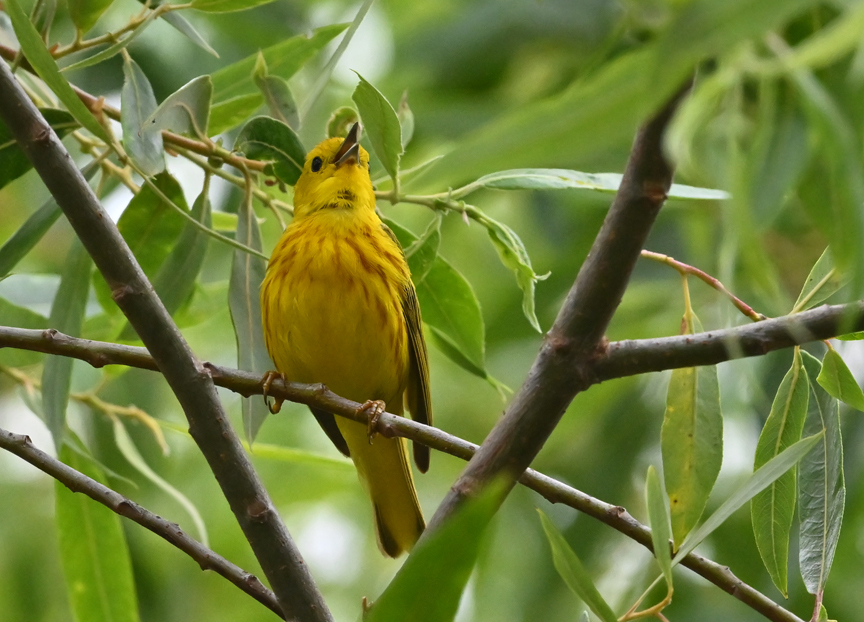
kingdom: Animalia
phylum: Chordata
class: Aves
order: Passeriformes
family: Parulidae
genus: Setophaga
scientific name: Setophaga petechia
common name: Yellow warbler
